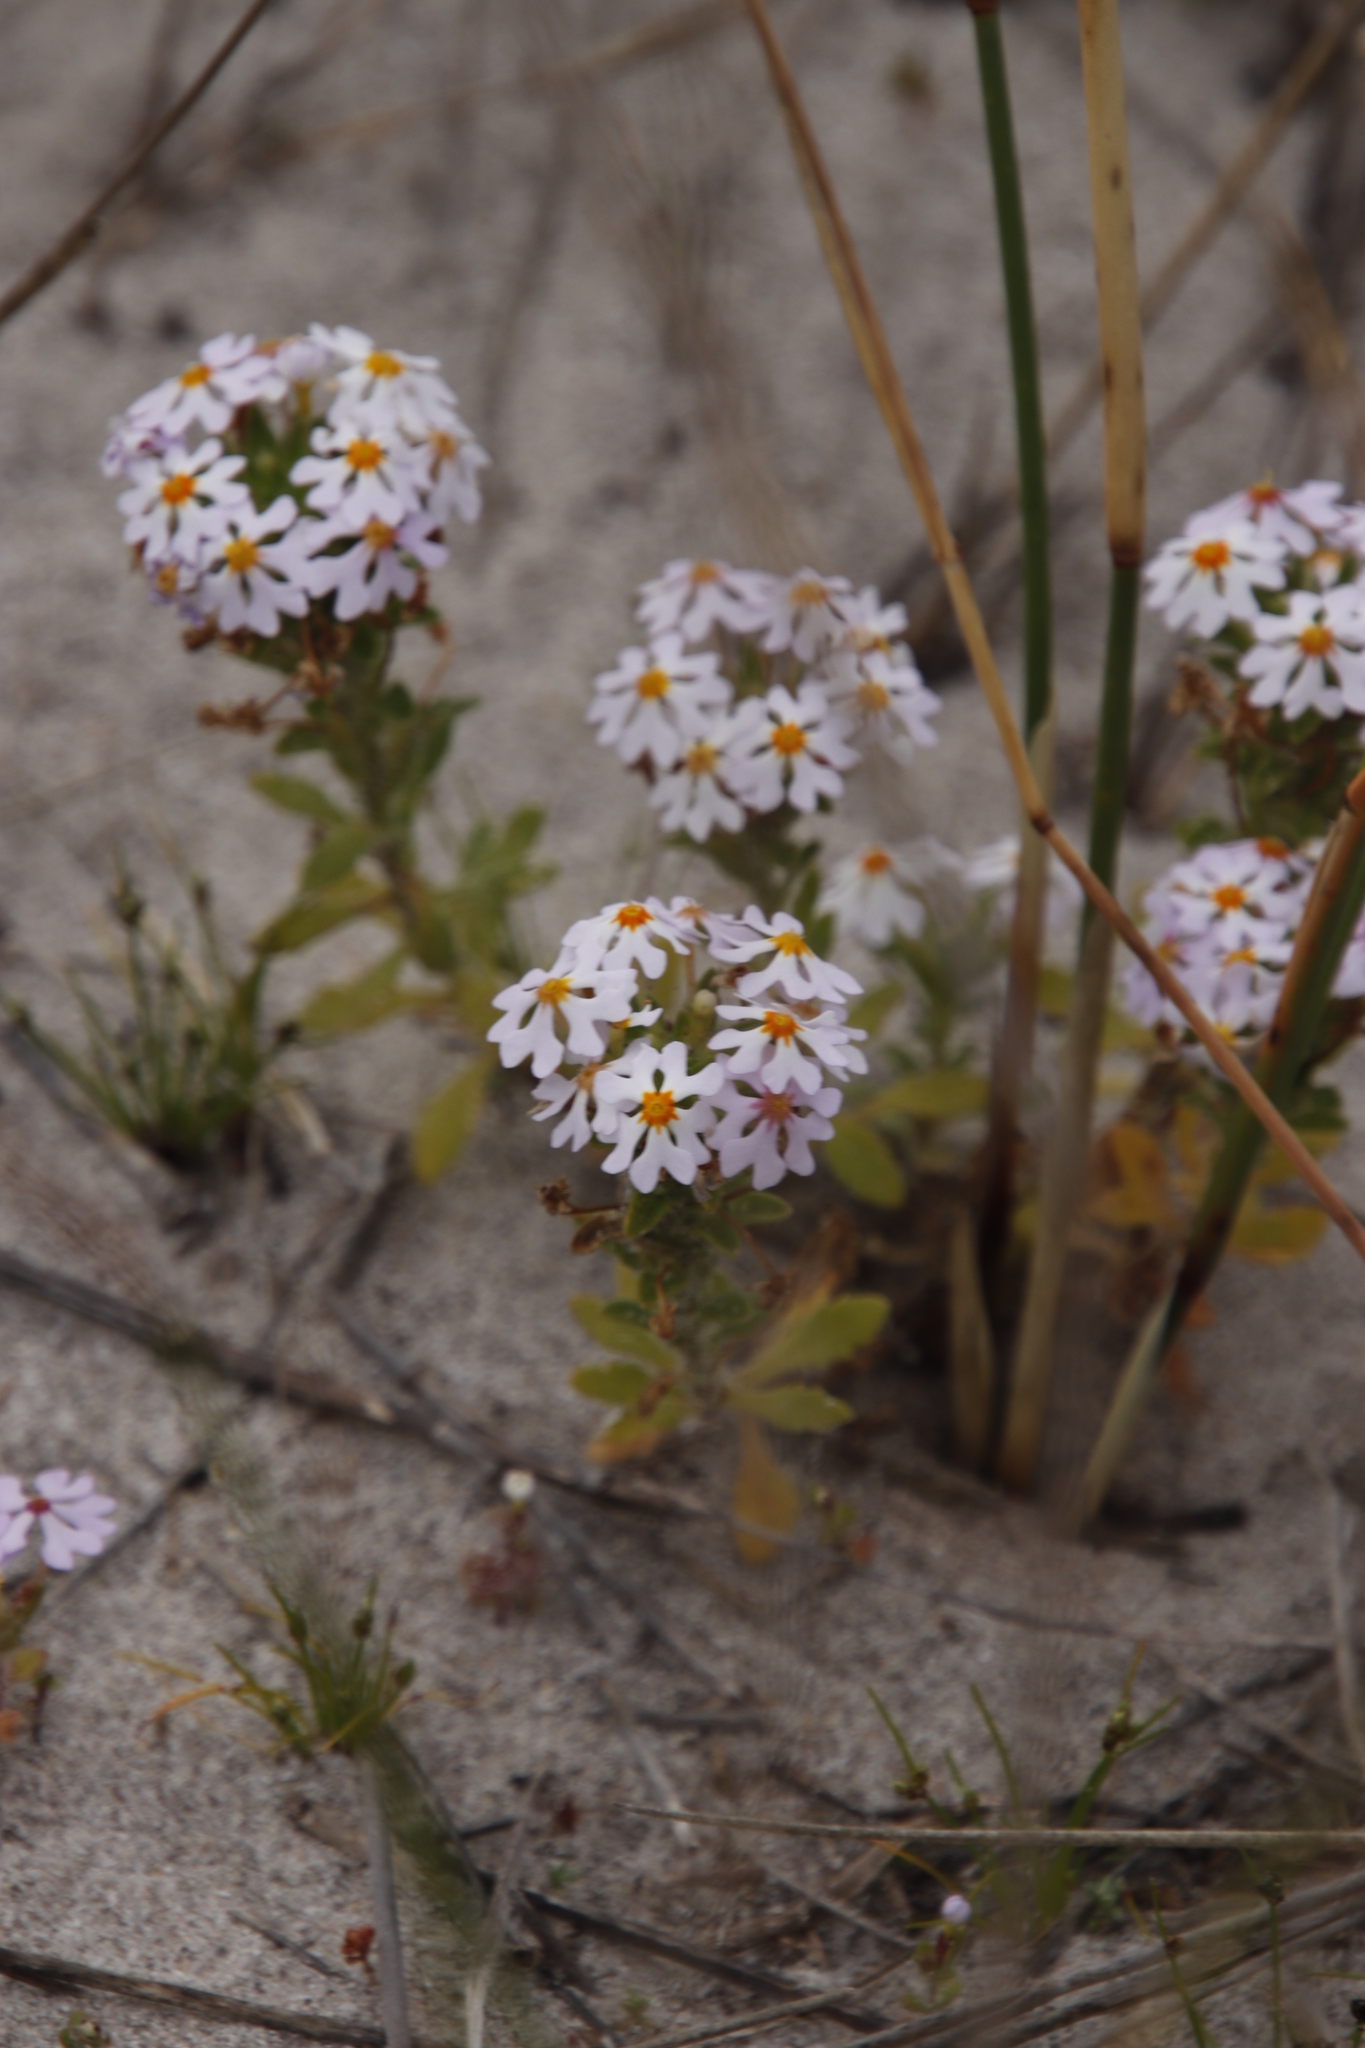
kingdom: Plantae
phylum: Tracheophyta
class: Magnoliopsida
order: Lamiales
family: Scrophulariaceae
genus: Zaluzianskya
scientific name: Zaluzianskya villosa
